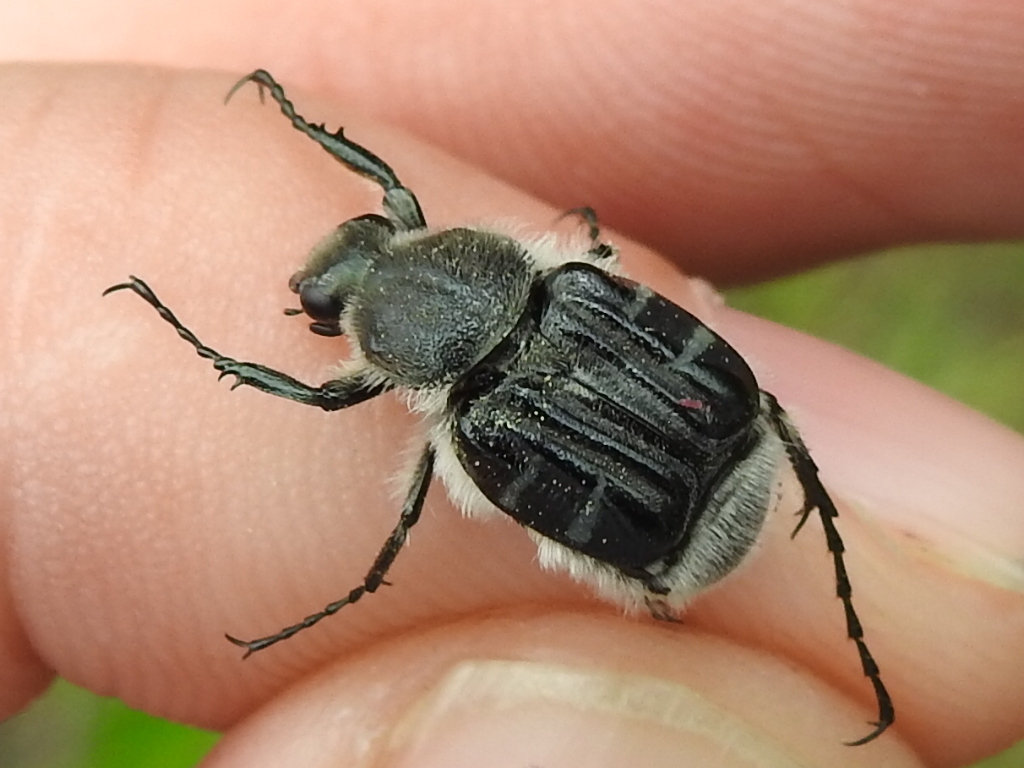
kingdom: Animalia
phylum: Arthropoda
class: Insecta
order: Coleoptera
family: Scarabaeidae
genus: Trichiotinus
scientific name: Trichiotinus texanus
